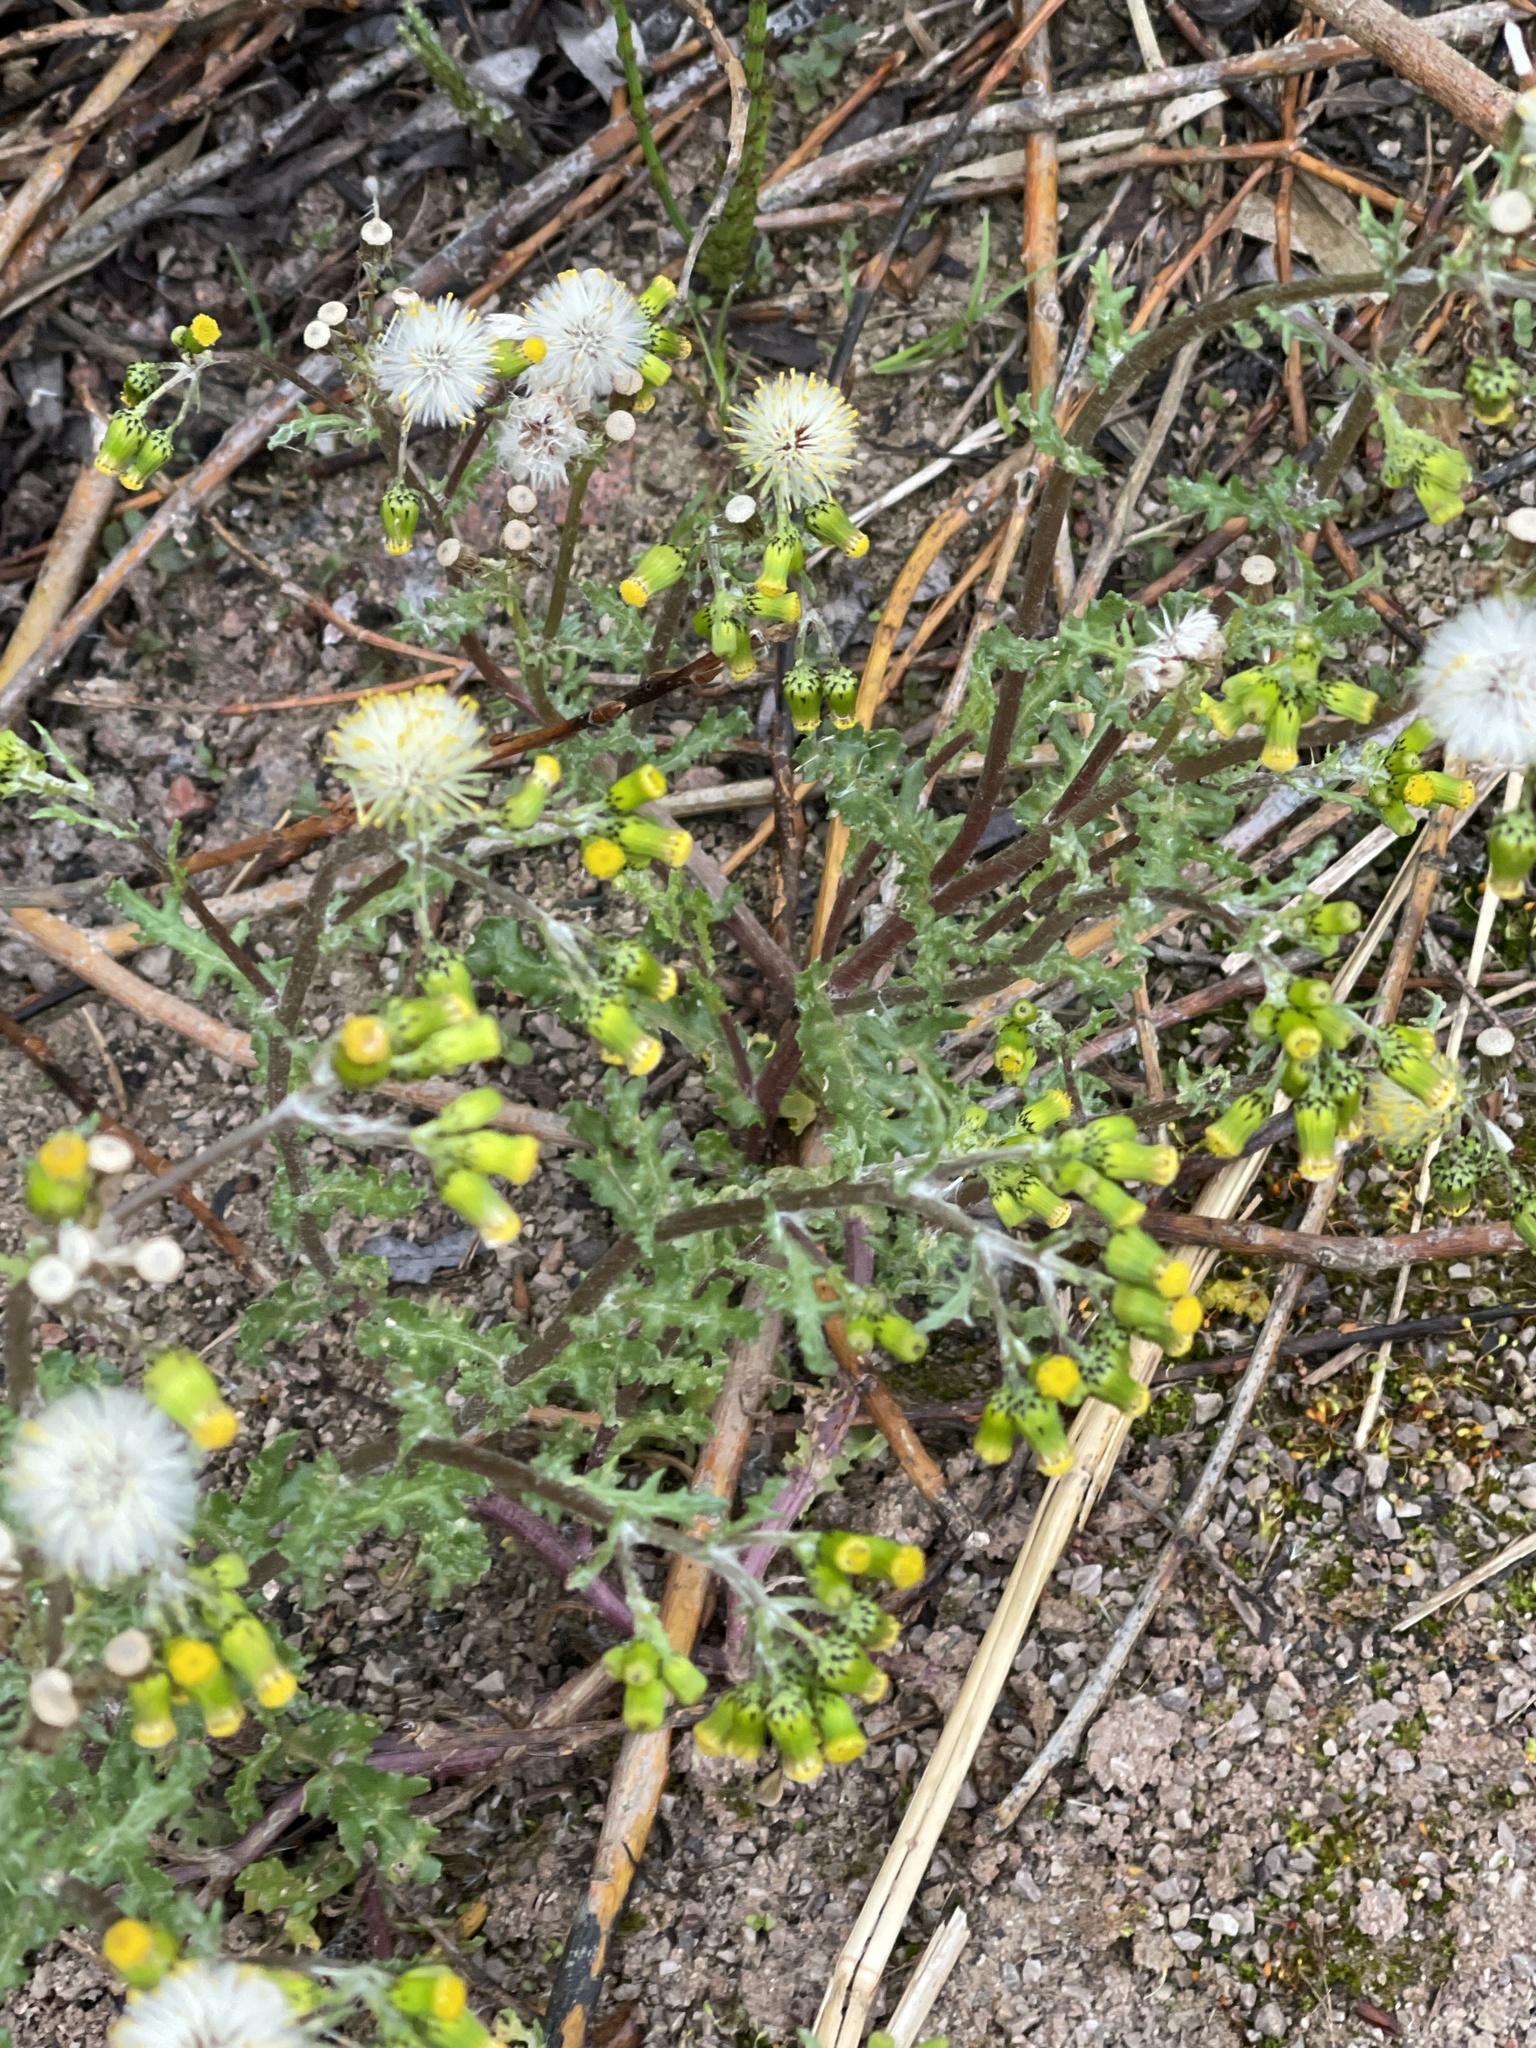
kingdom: Plantae
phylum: Tracheophyta
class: Magnoliopsida
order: Asterales
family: Asteraceae
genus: Senecio
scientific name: Senecio vulgaris
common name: Old-man-in-the-spring
